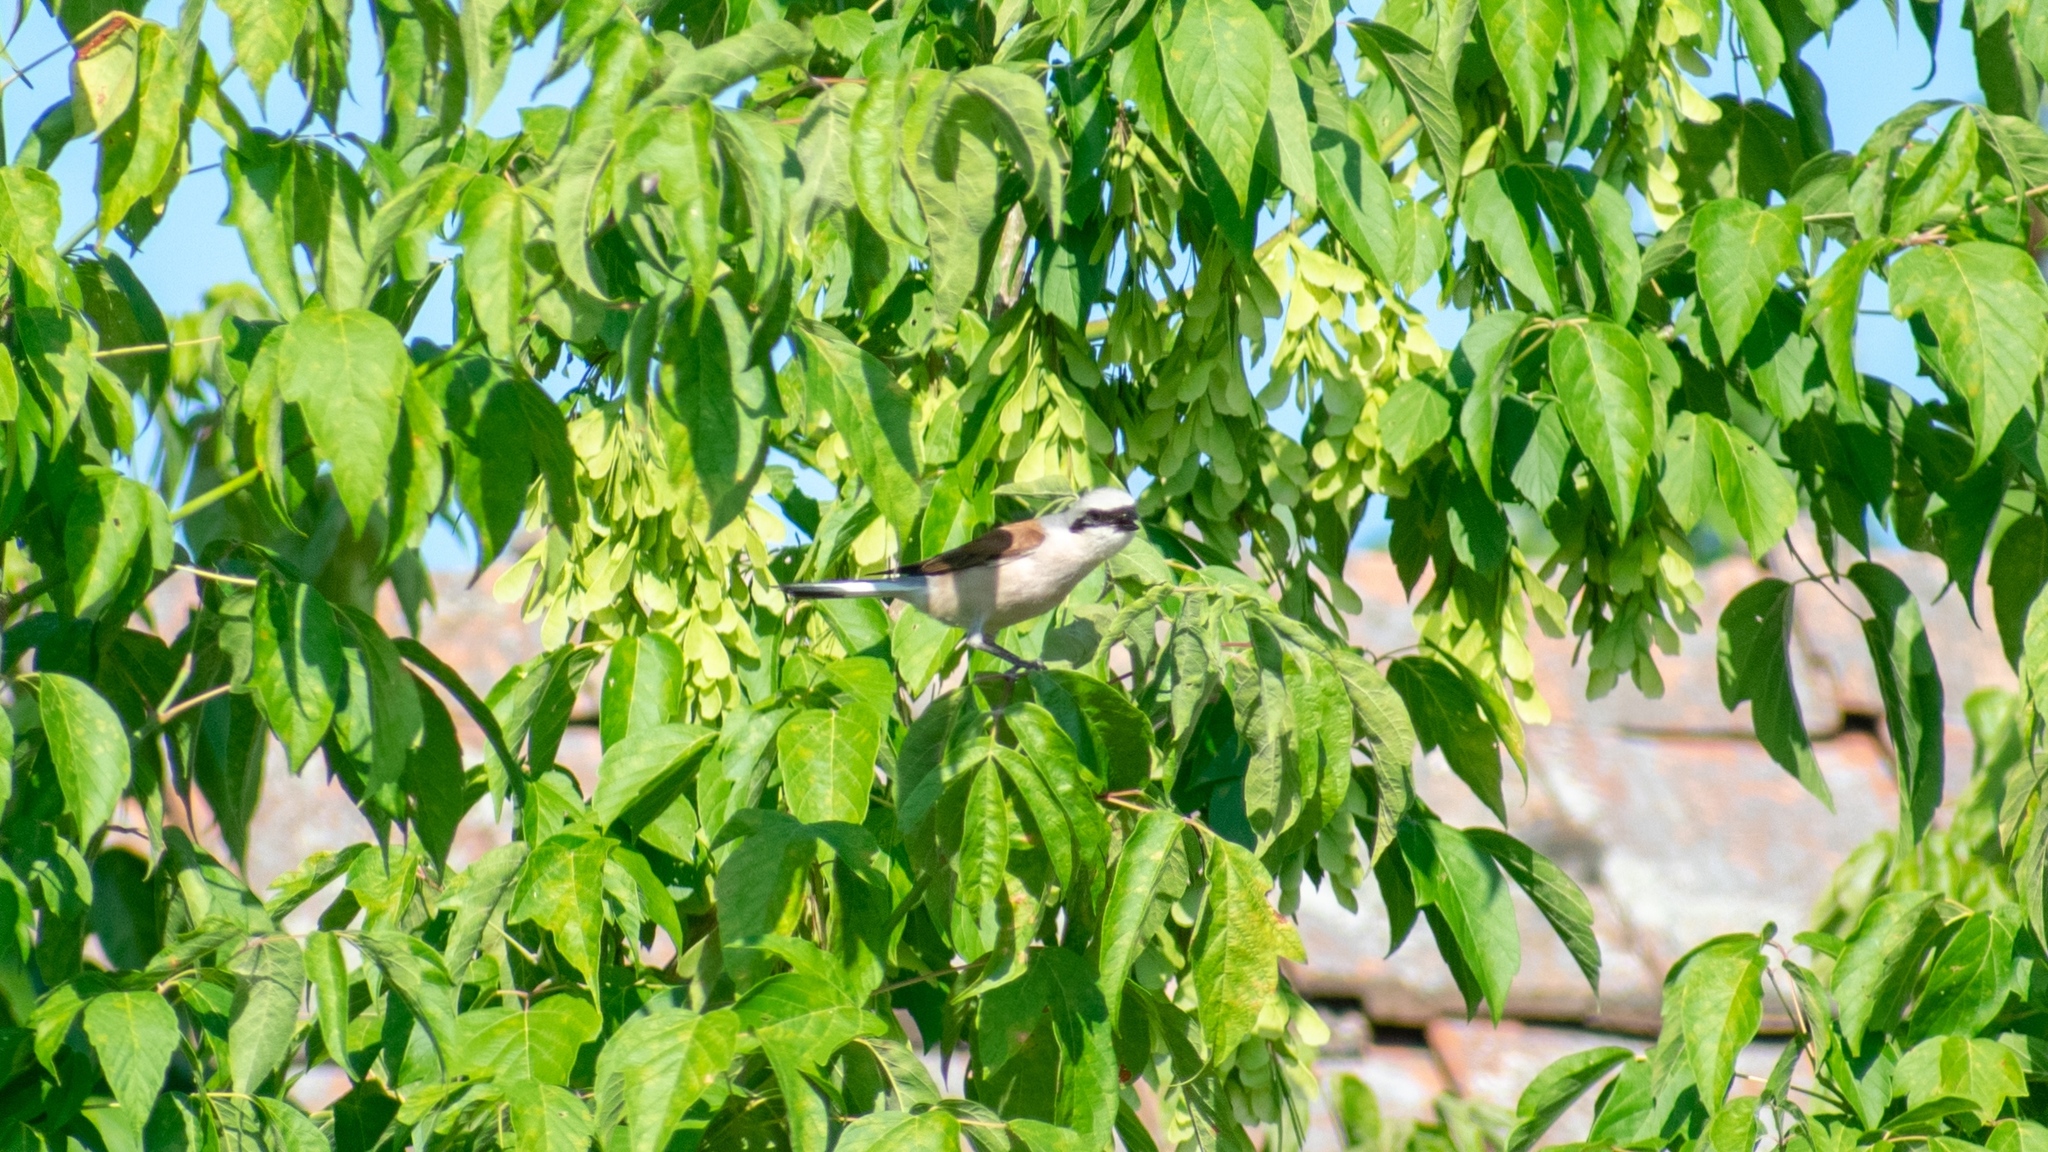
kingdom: Animalia
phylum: Chordata
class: Aves
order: Passeriformes
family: Laniidae
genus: Lanius
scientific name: Lanius collurio
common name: Red-backed shrike
